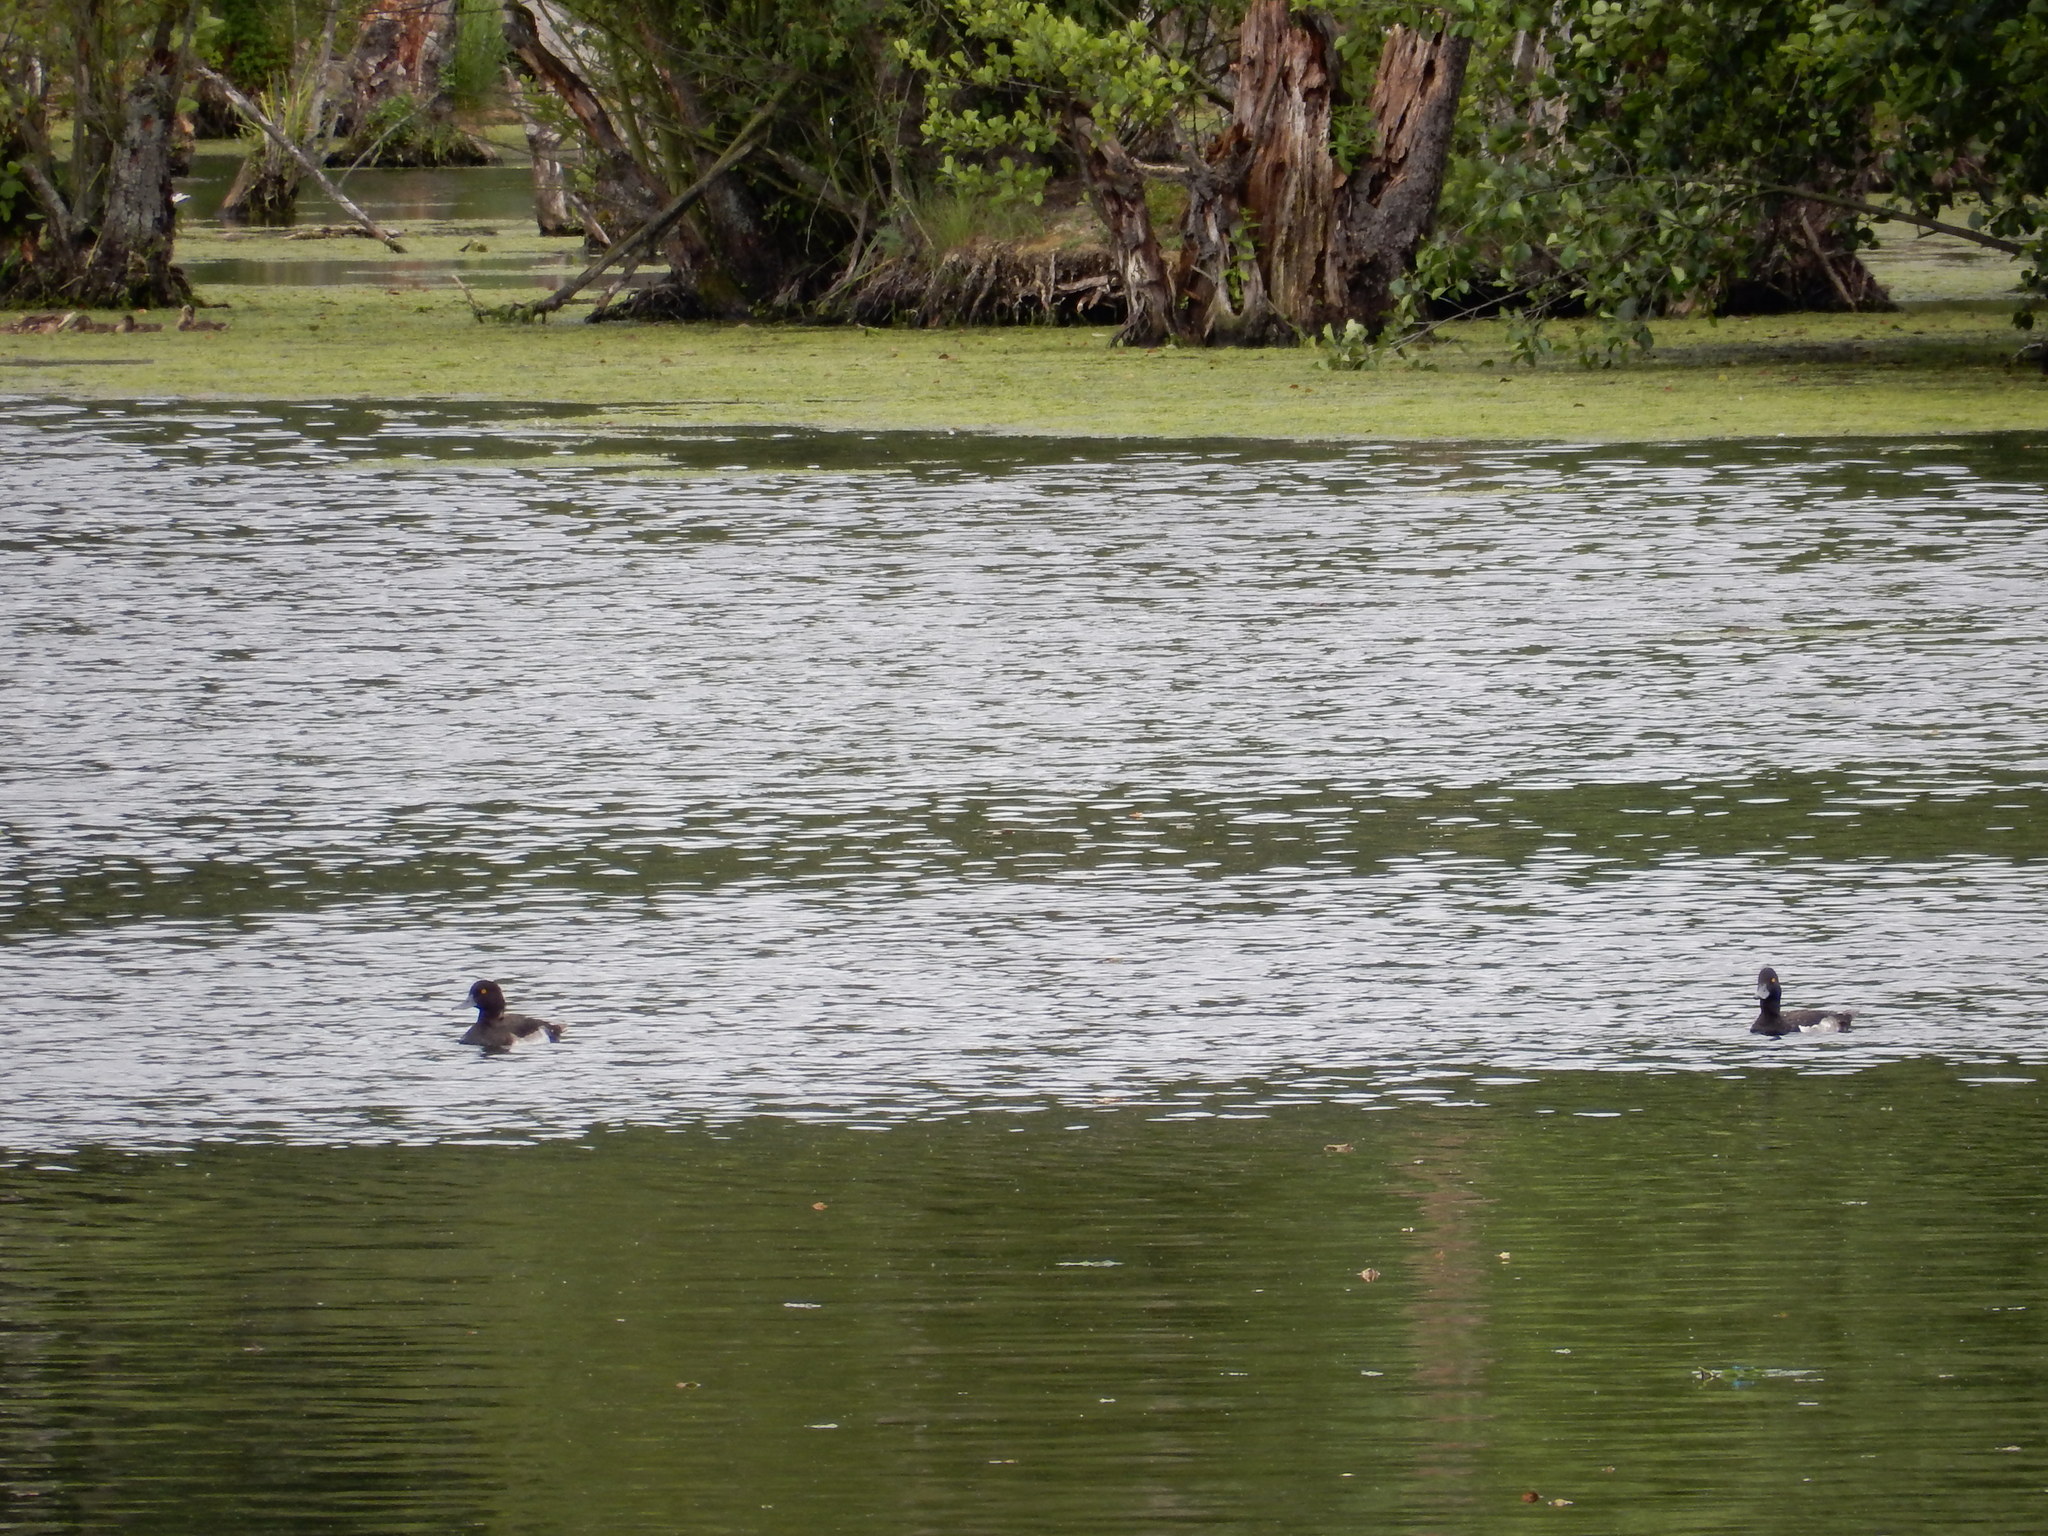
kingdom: Animalia
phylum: Chordata
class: Aves
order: Anseriformes
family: Anatidae
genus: Aythya
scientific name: Aythya fuligula
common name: Tufted duck
